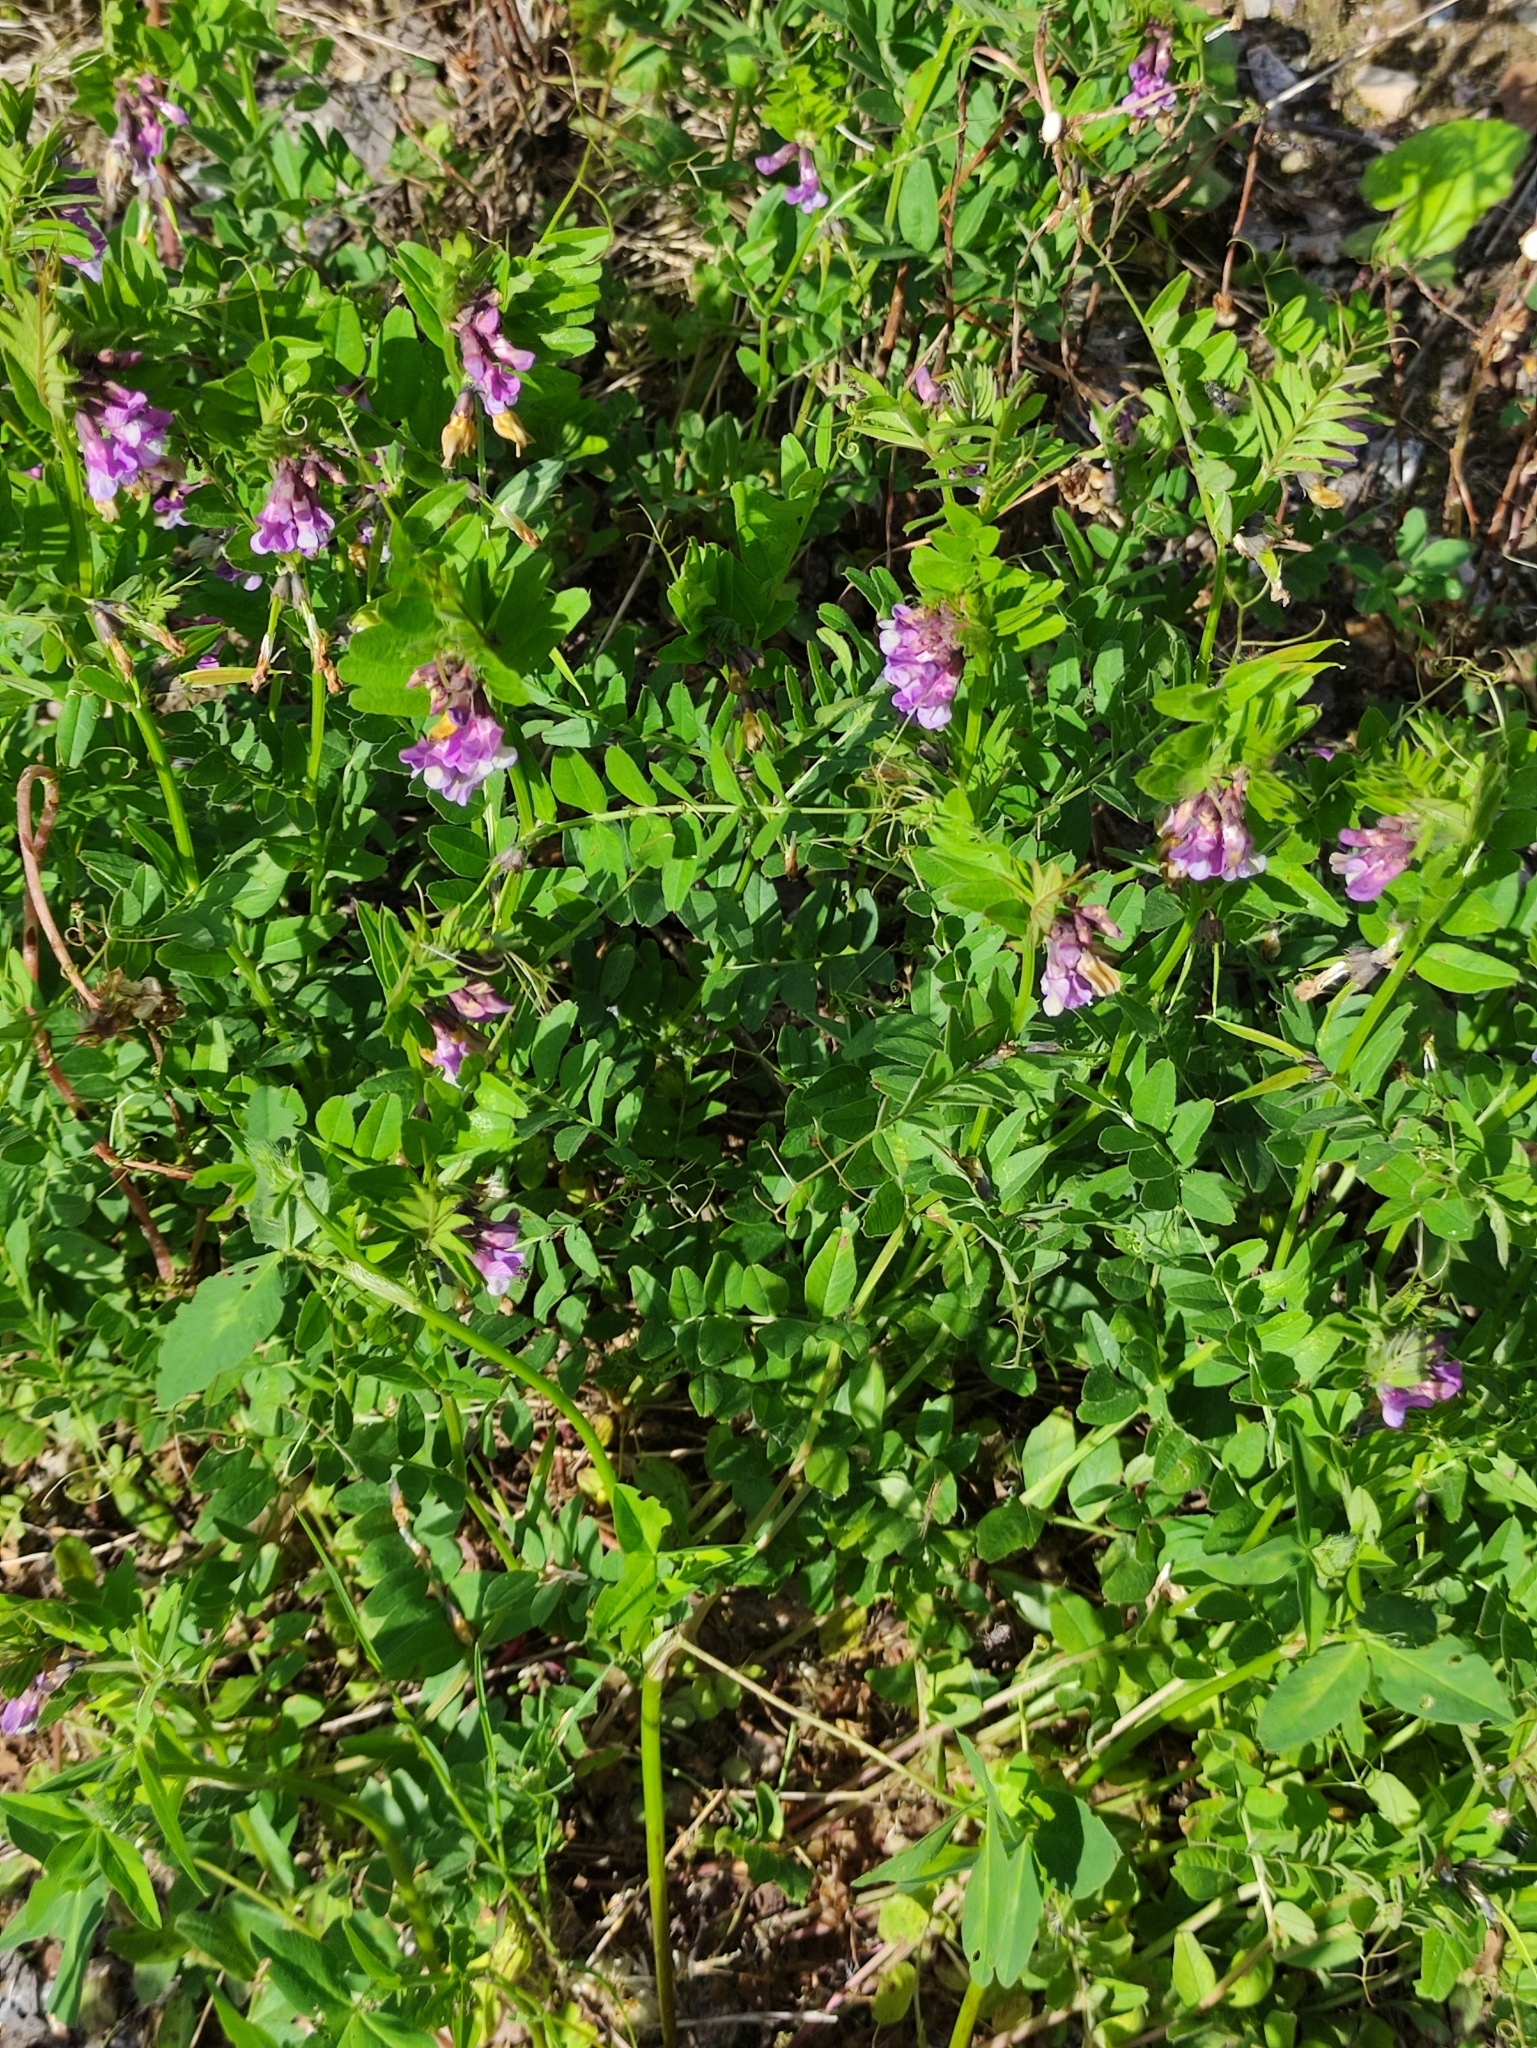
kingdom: Plantae
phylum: Tracheophyta
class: Magnoliopsida
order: Fabales
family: Fabaceae
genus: Vicia
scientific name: Vicia sepium
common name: Bush vetch
